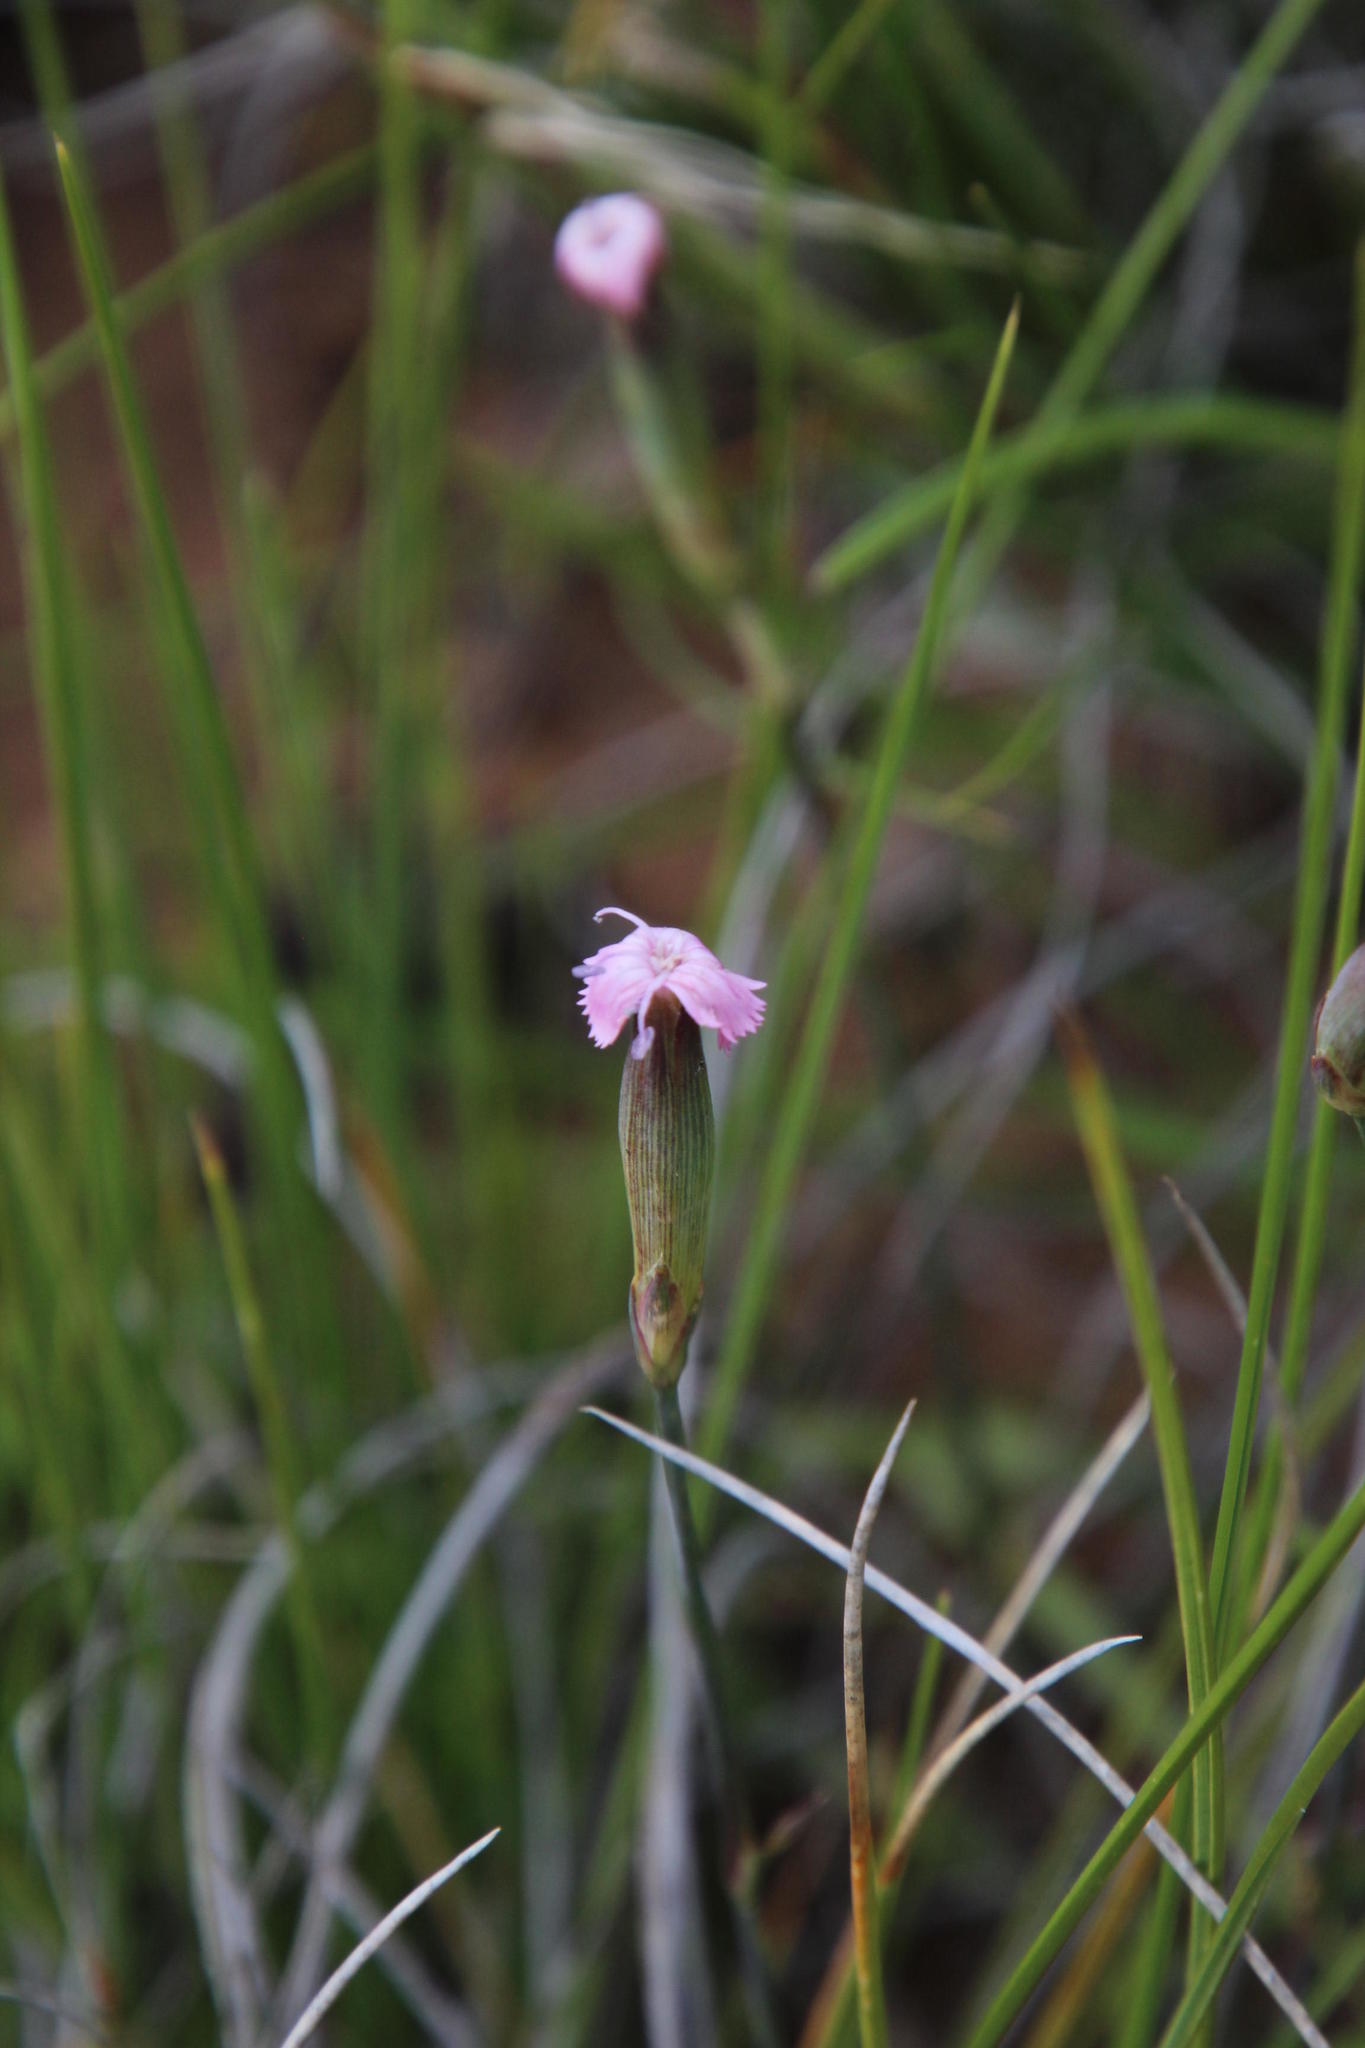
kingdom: Plantae
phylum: Tracheophyta
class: Magnoliopsida
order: Caryophyllales
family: Caryophyllaceae
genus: Dianthus
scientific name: Dianthus micropetalus
